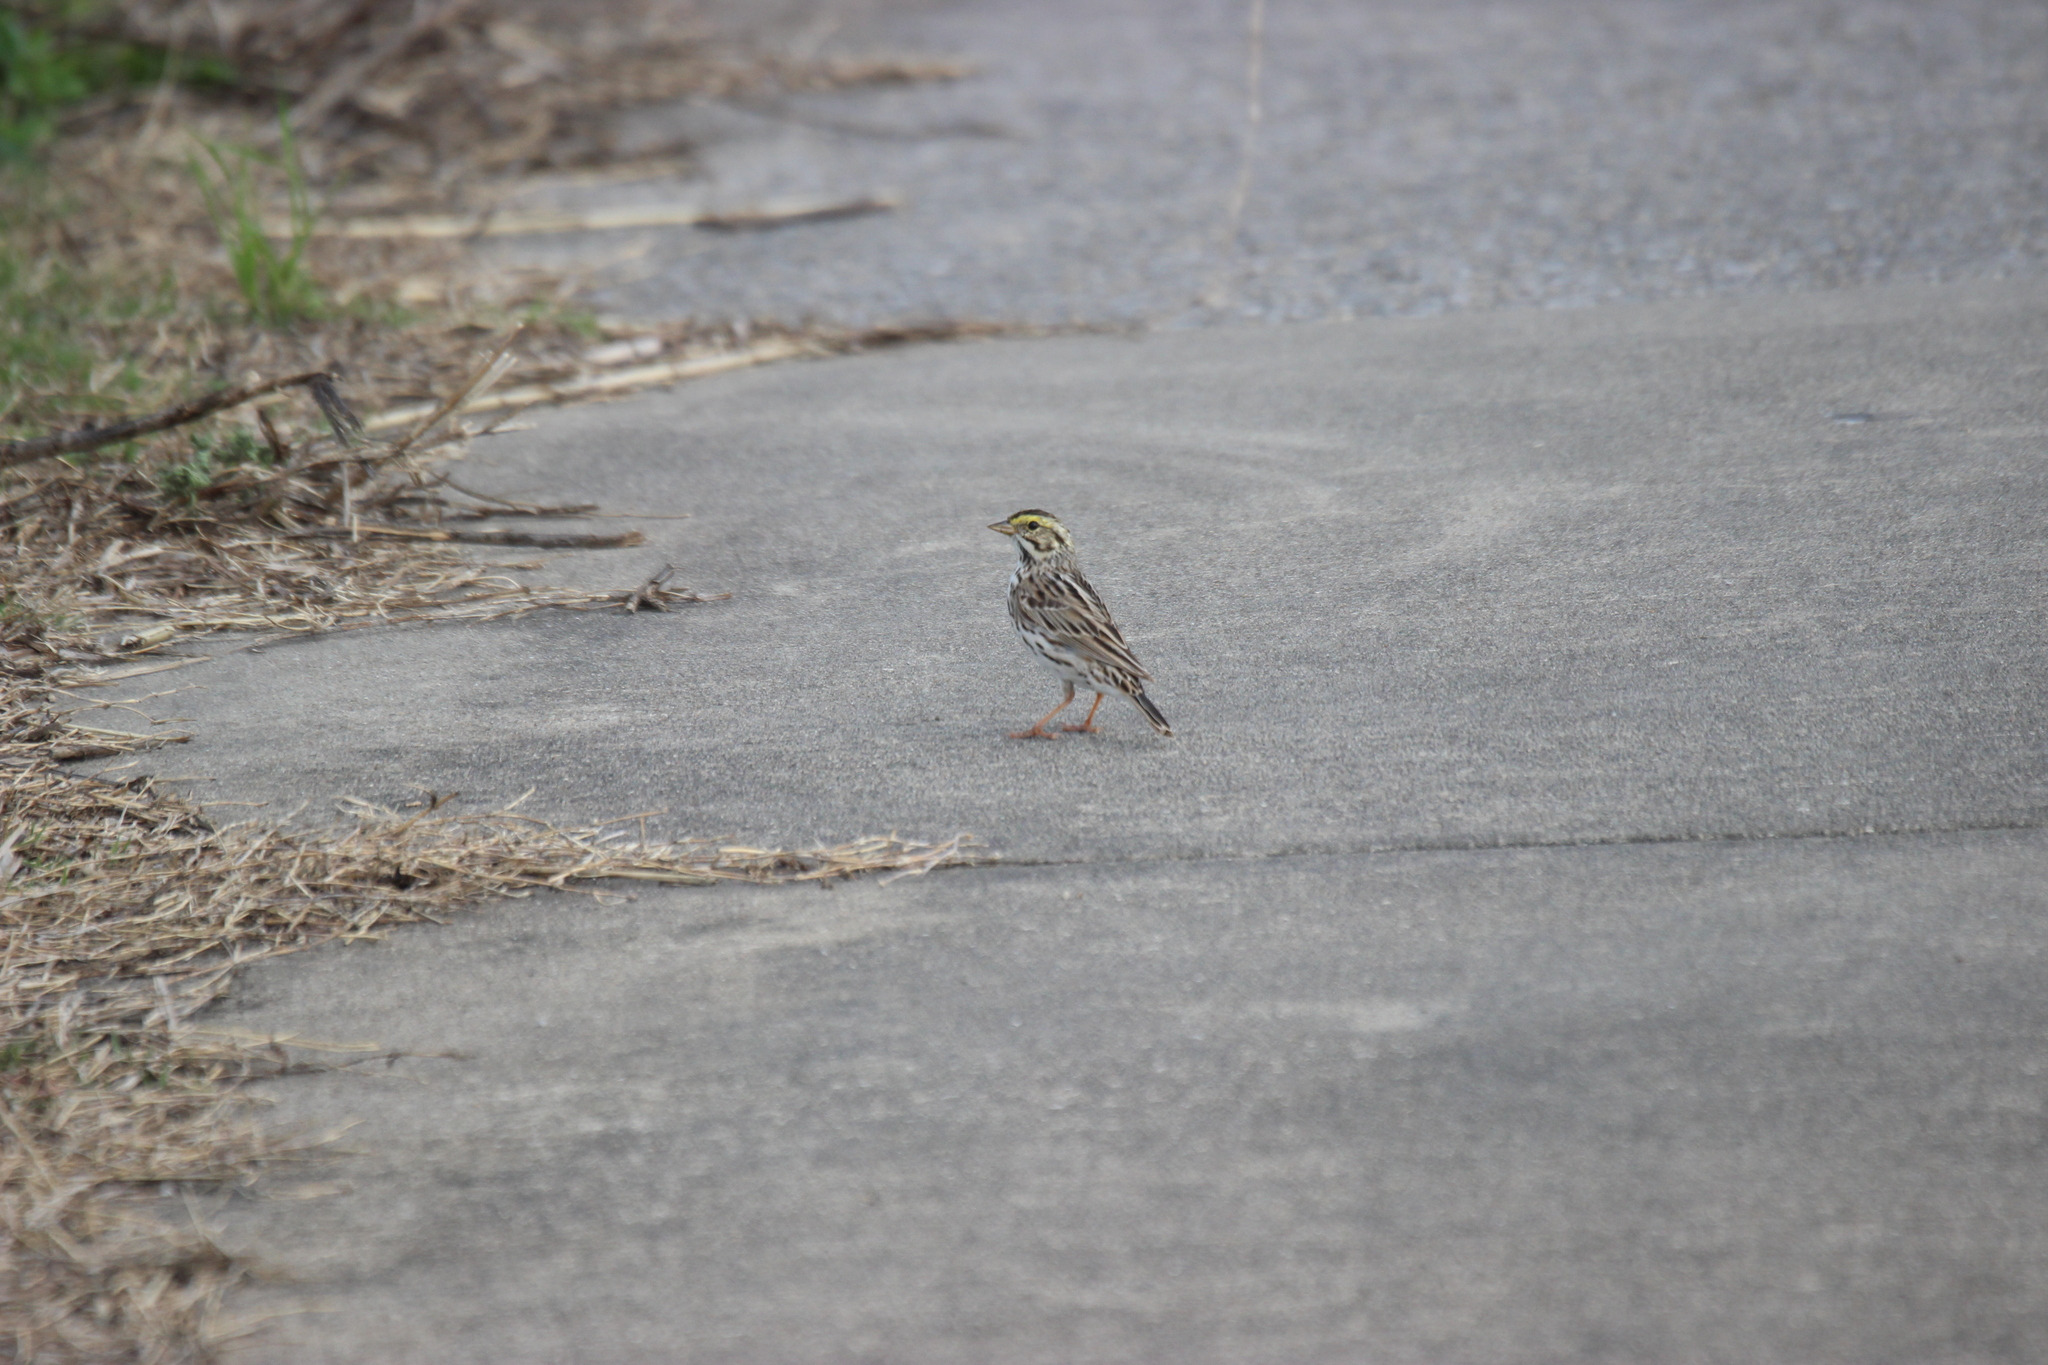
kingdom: Animalia
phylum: Chordata
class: Aves
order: Passeriformes
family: Passerellidae
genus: Passerculus
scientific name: Passerculus sandwichensis
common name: Savannah sparrow
